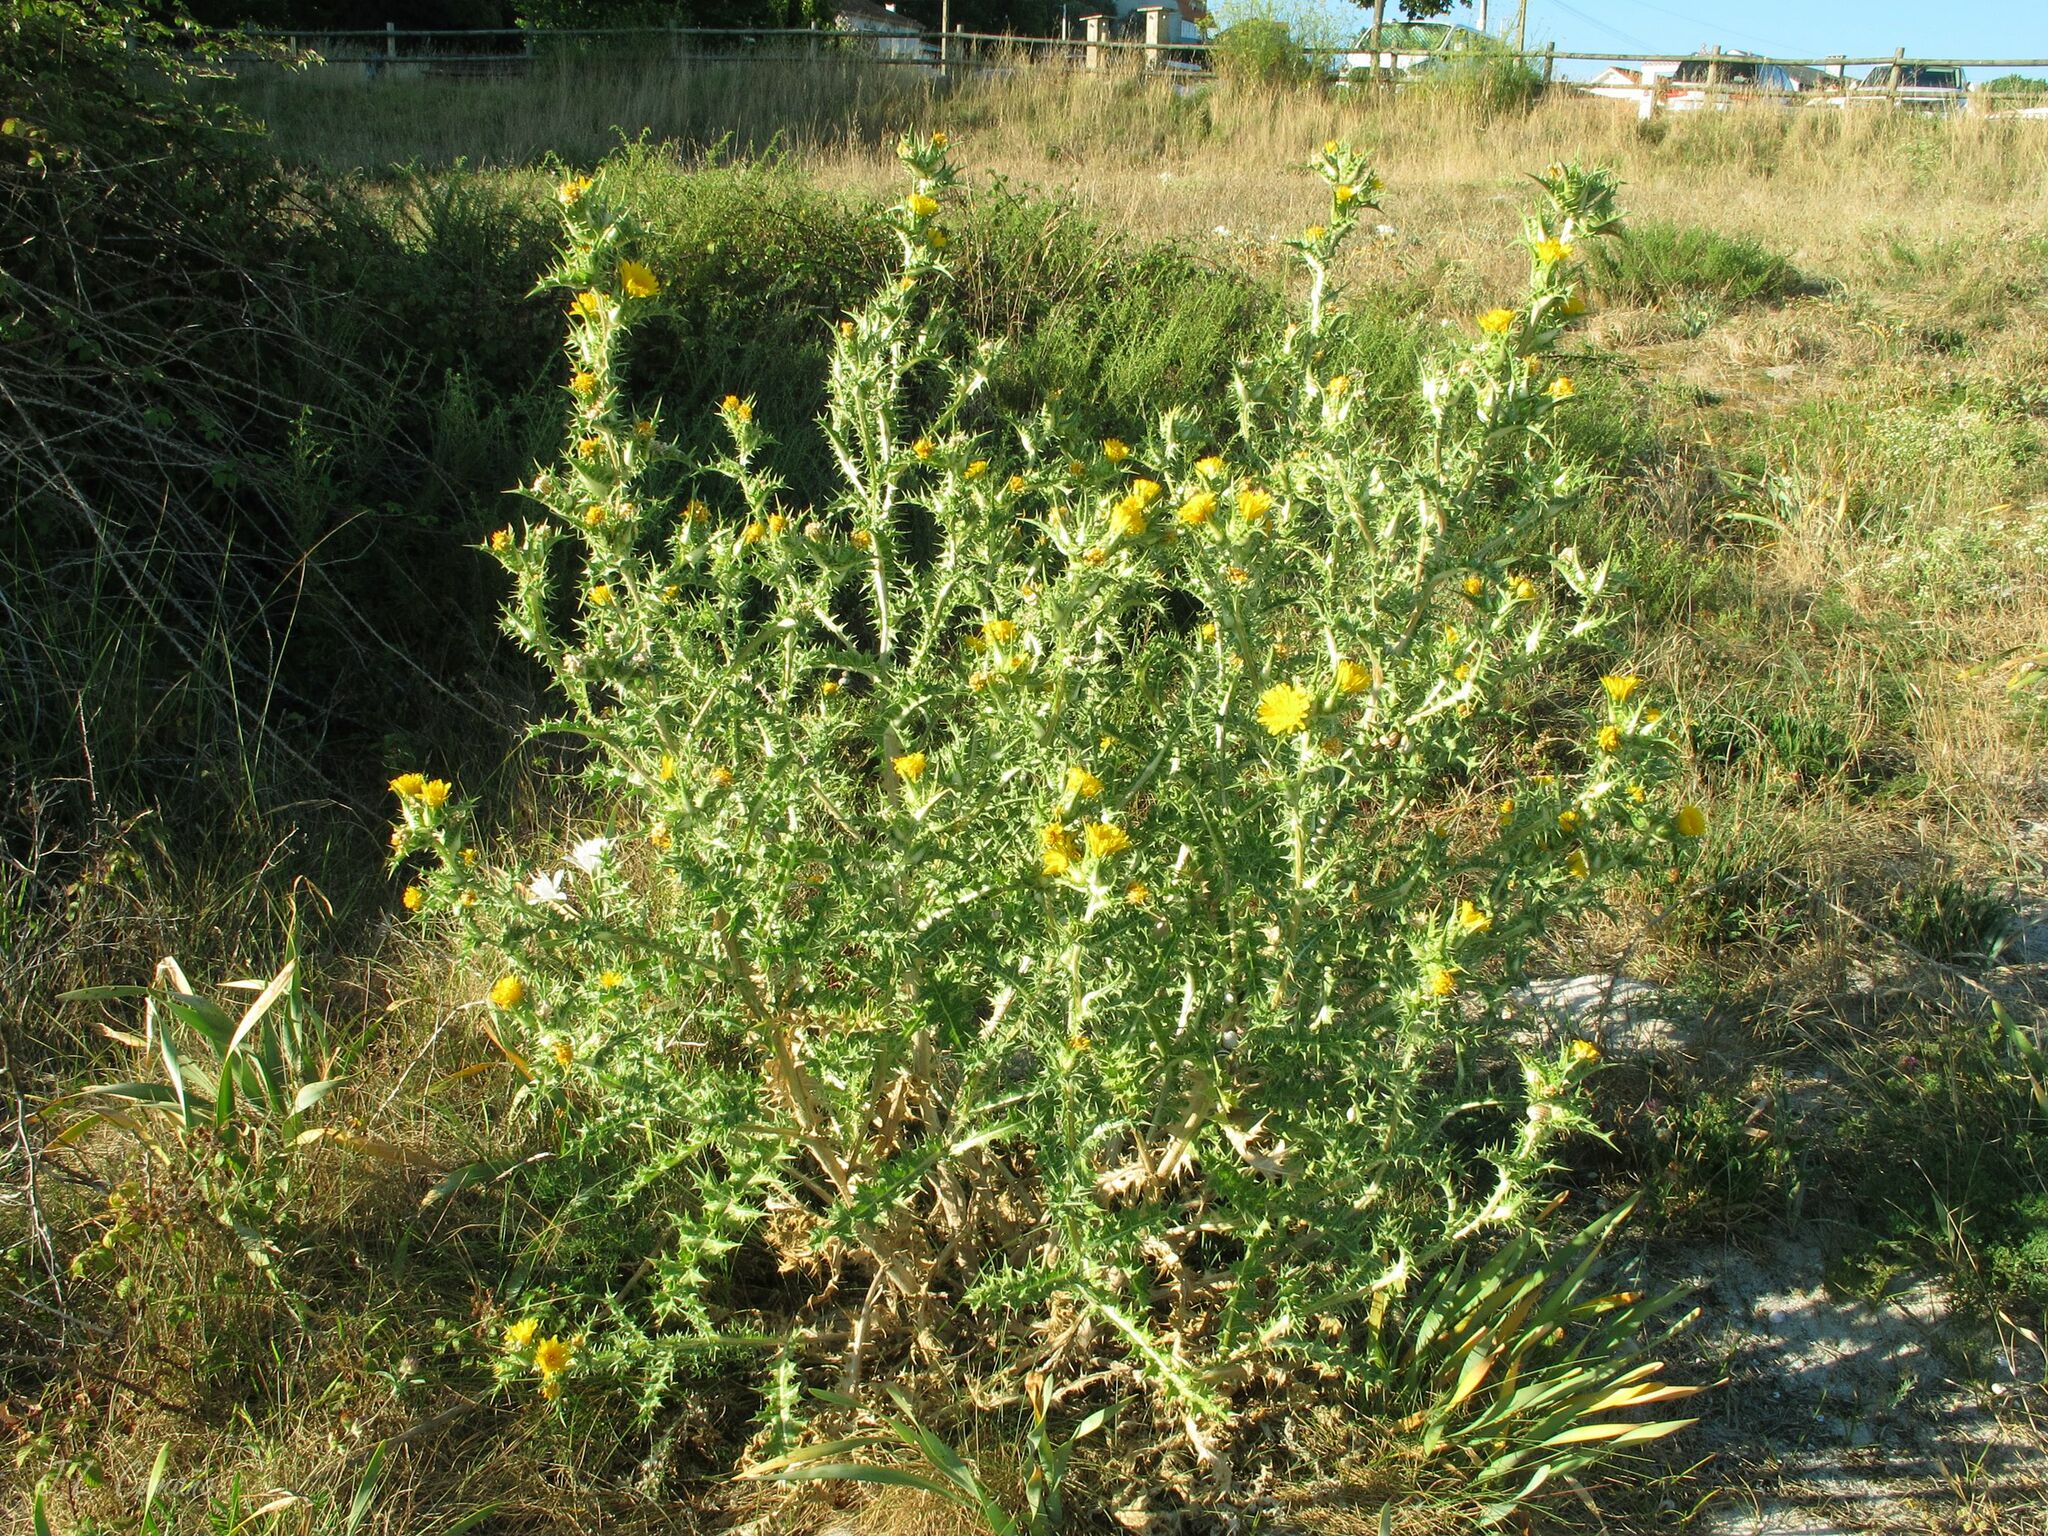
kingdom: Plantae
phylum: Tracheophyta
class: Magnoliopsida
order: Asterales
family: Asteraceae
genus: Scolymus
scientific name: Scolymus hispanicus
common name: Golden thistle
